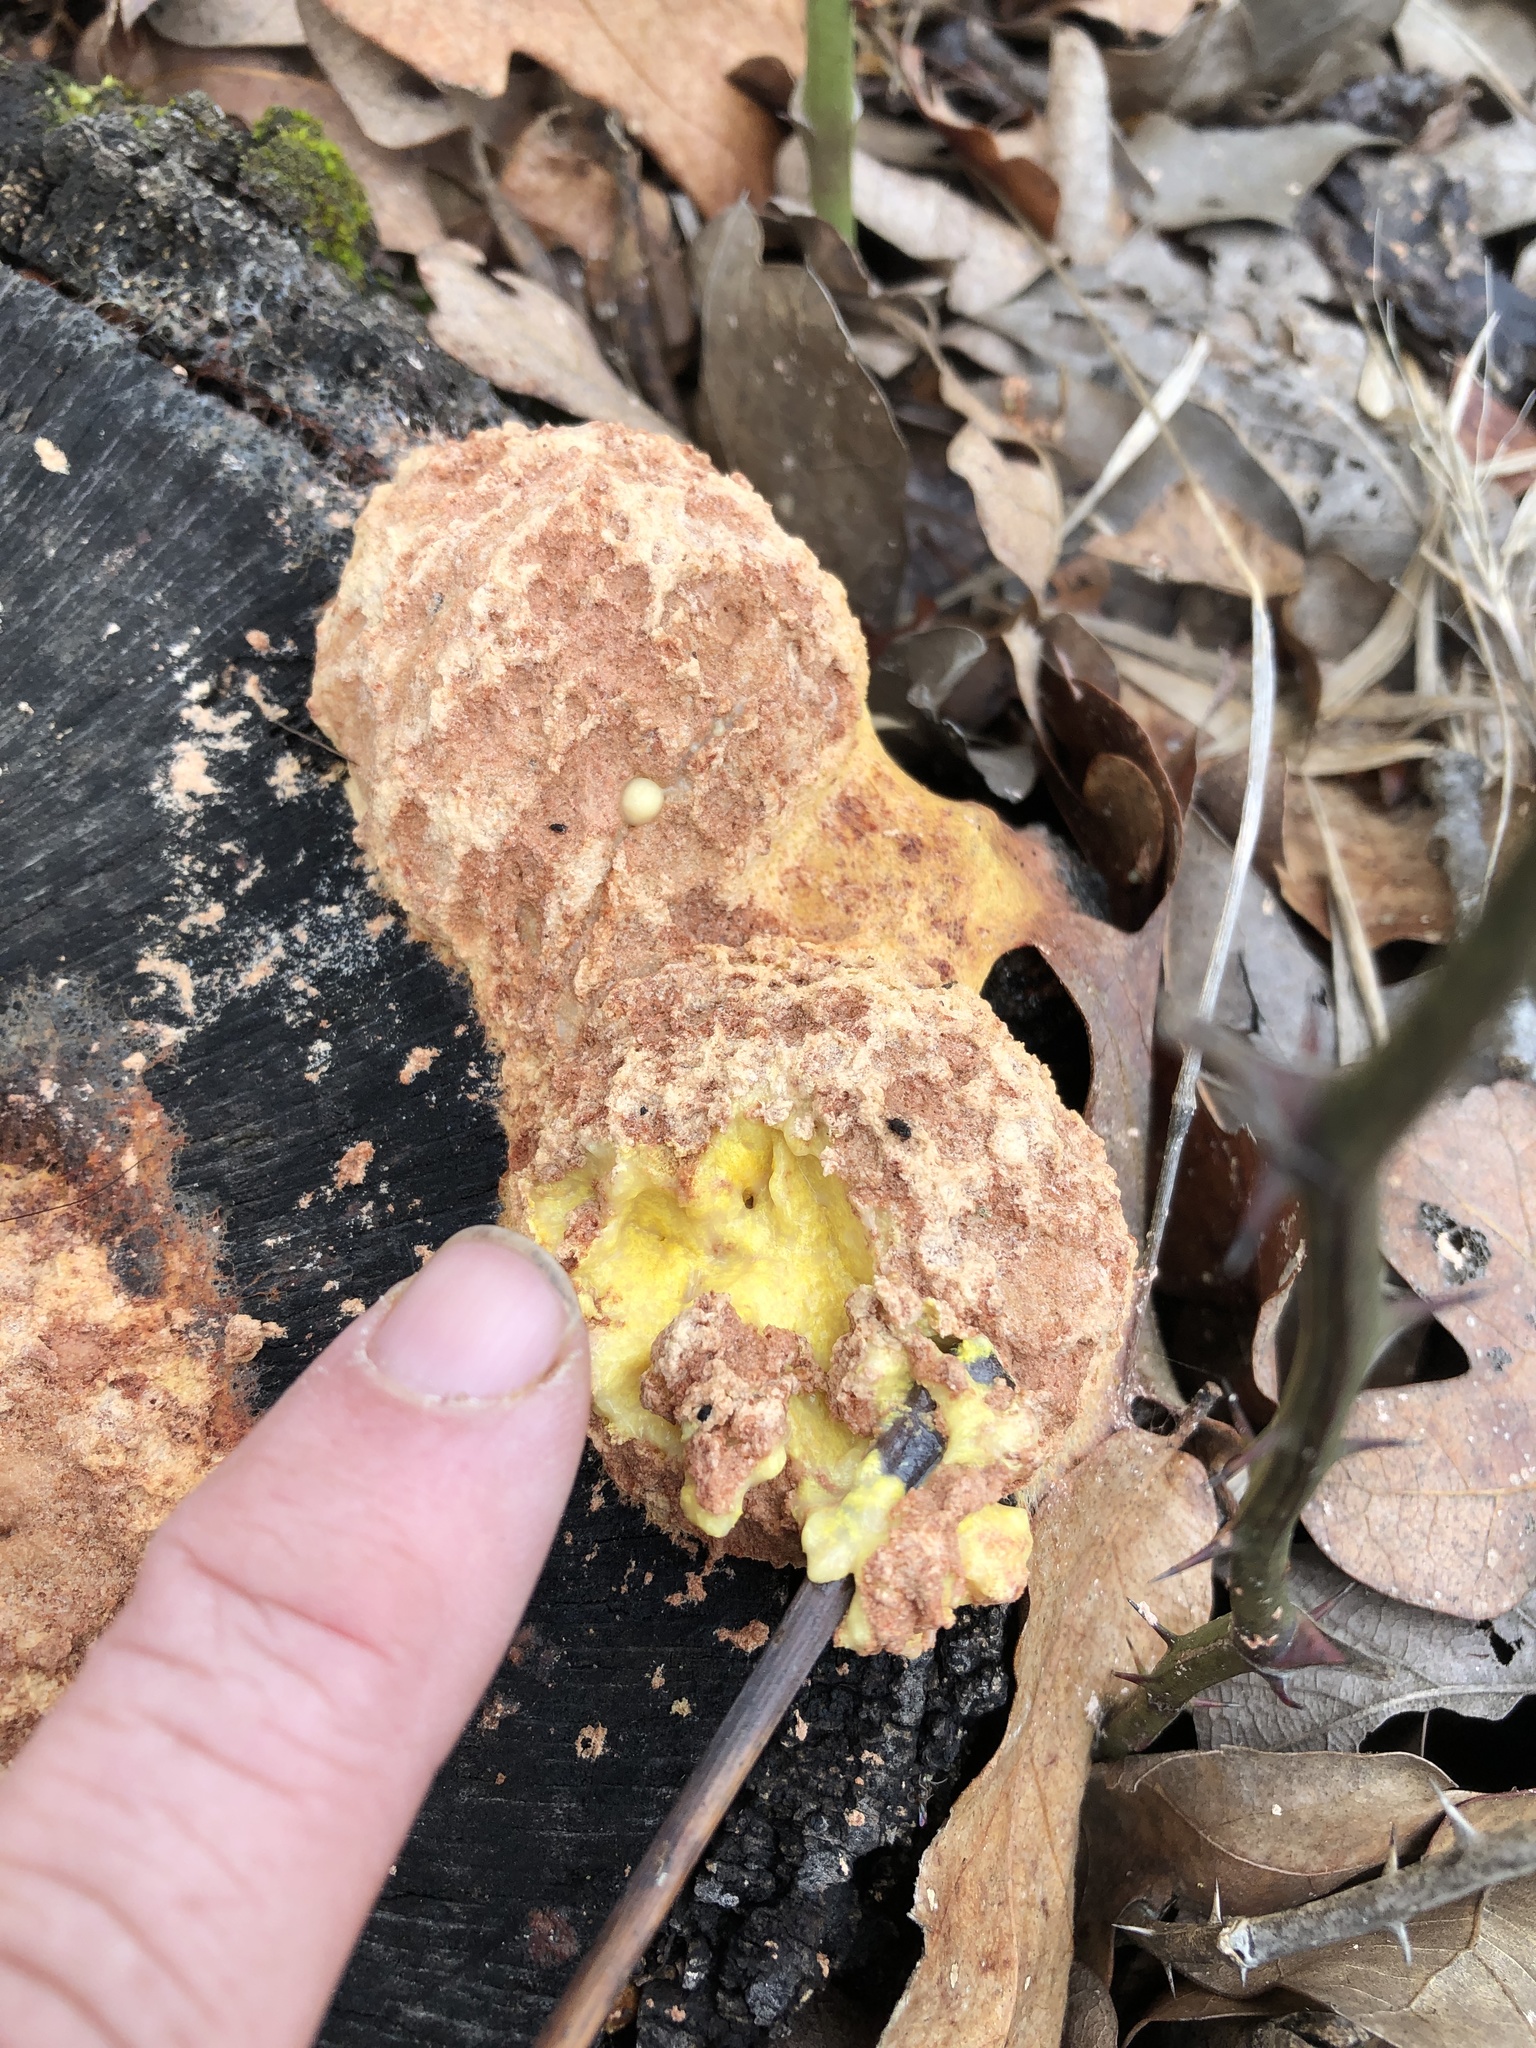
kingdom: Protozoa
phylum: Mycetozoa
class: Myxomycetes
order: Physarales
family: Physaraceae
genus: Fuligo
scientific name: Fuligo septica
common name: Dog vomit slime mold
